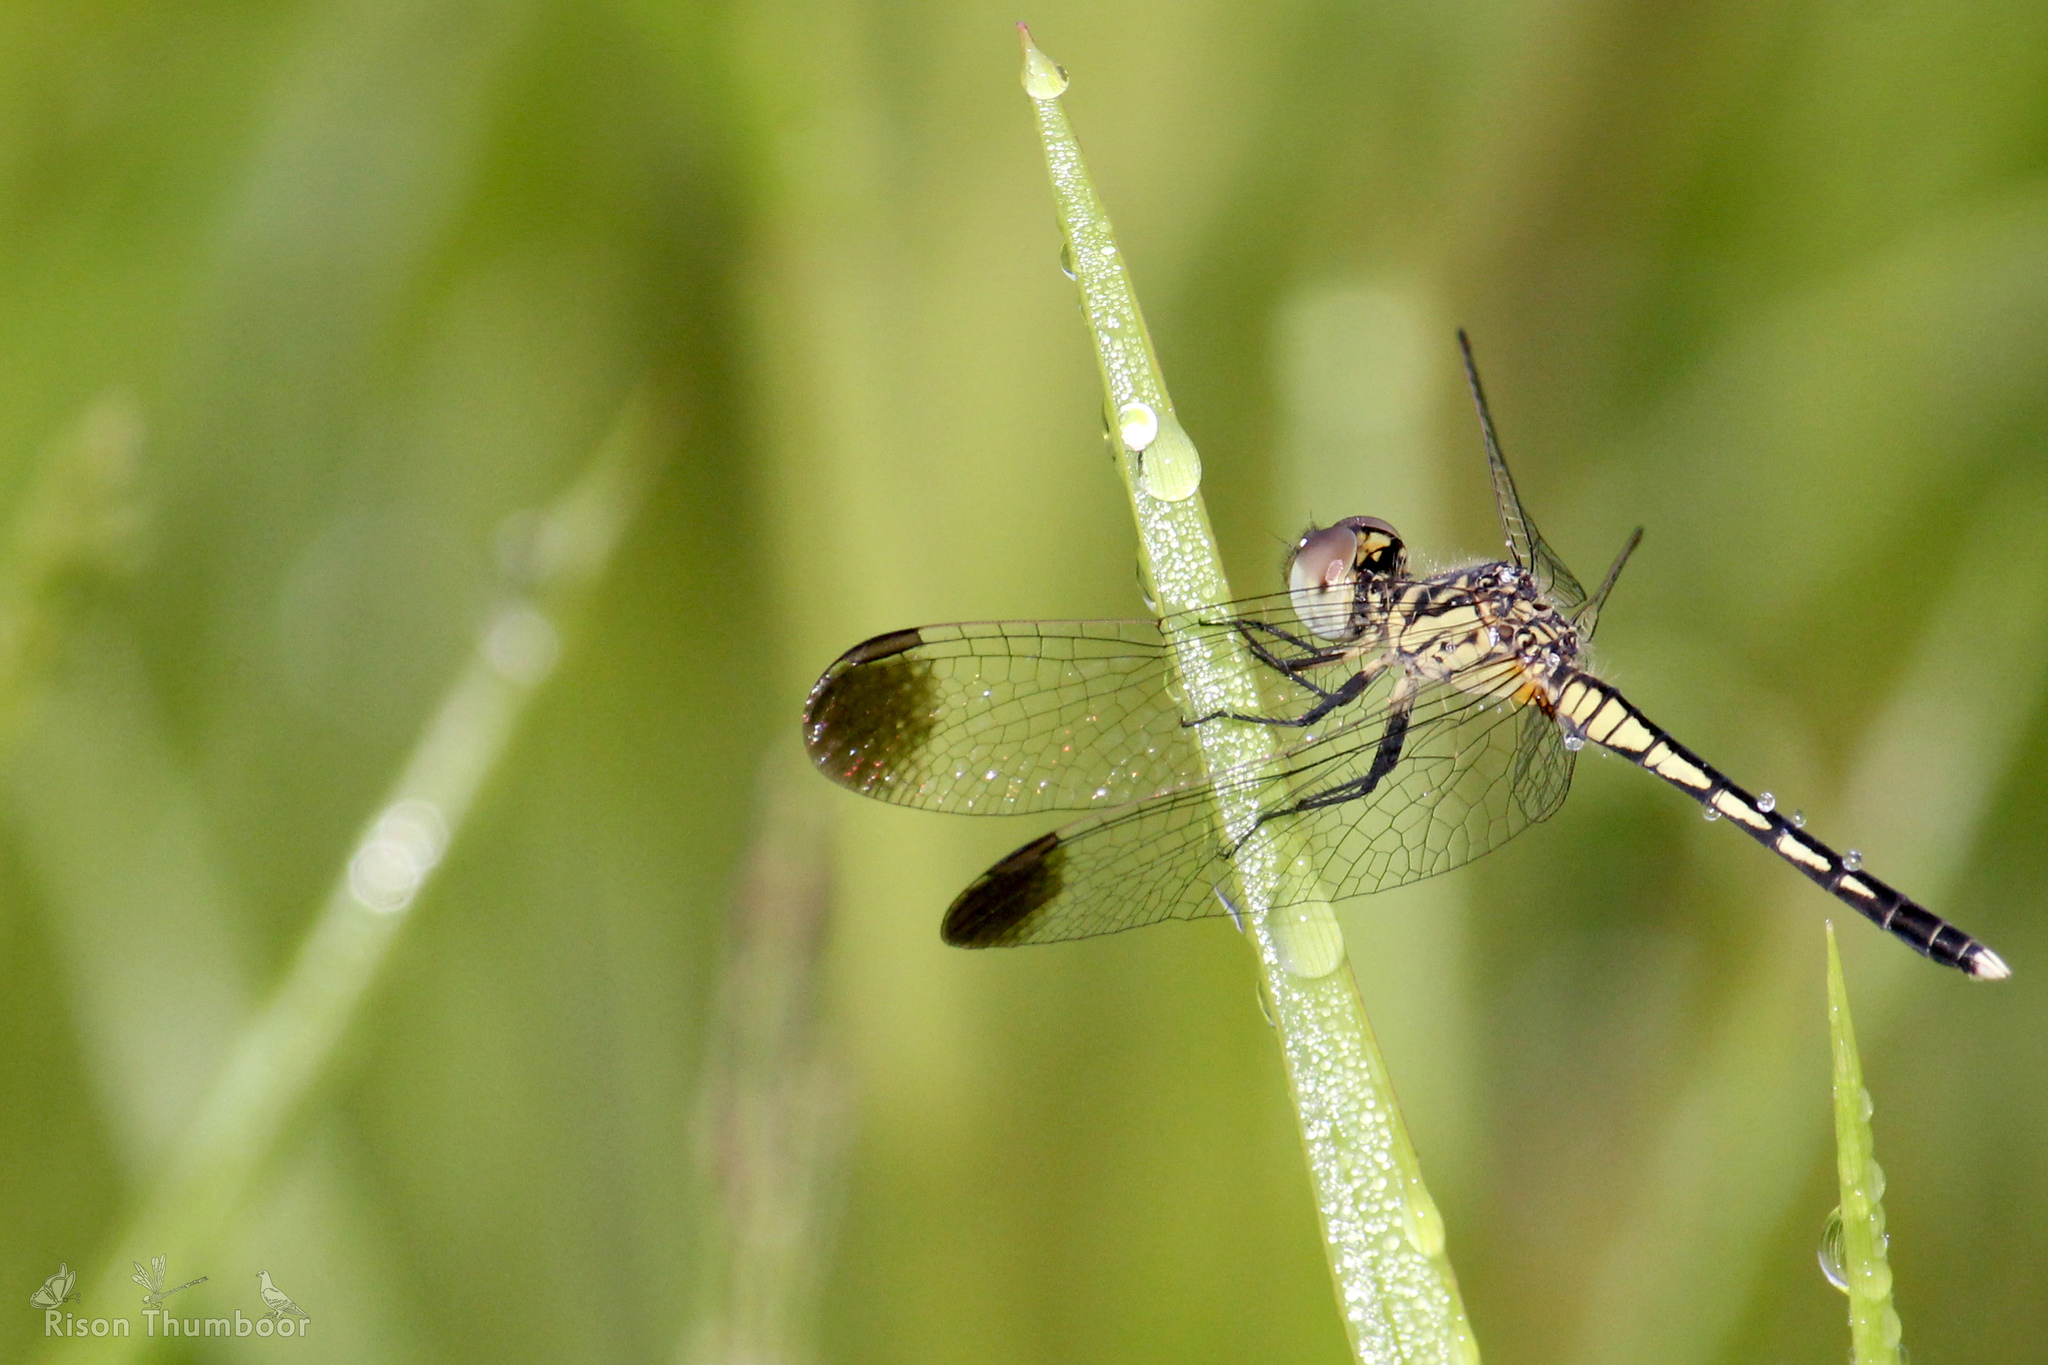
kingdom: Animalia
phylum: Arthropoda
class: Insecta
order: Odonata
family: Libellulidae
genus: Diplacodes
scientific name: Diplacodes nebulosa
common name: Black-tipped percher
